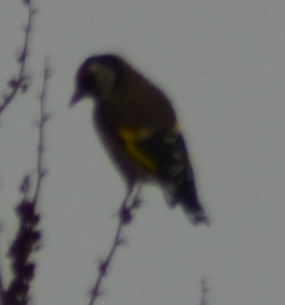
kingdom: Animalia
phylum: Chordata
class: Aves
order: Passeriformes
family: Fringillidae
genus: Carduelis
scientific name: Carduelis carduelis
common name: European goldfinch
